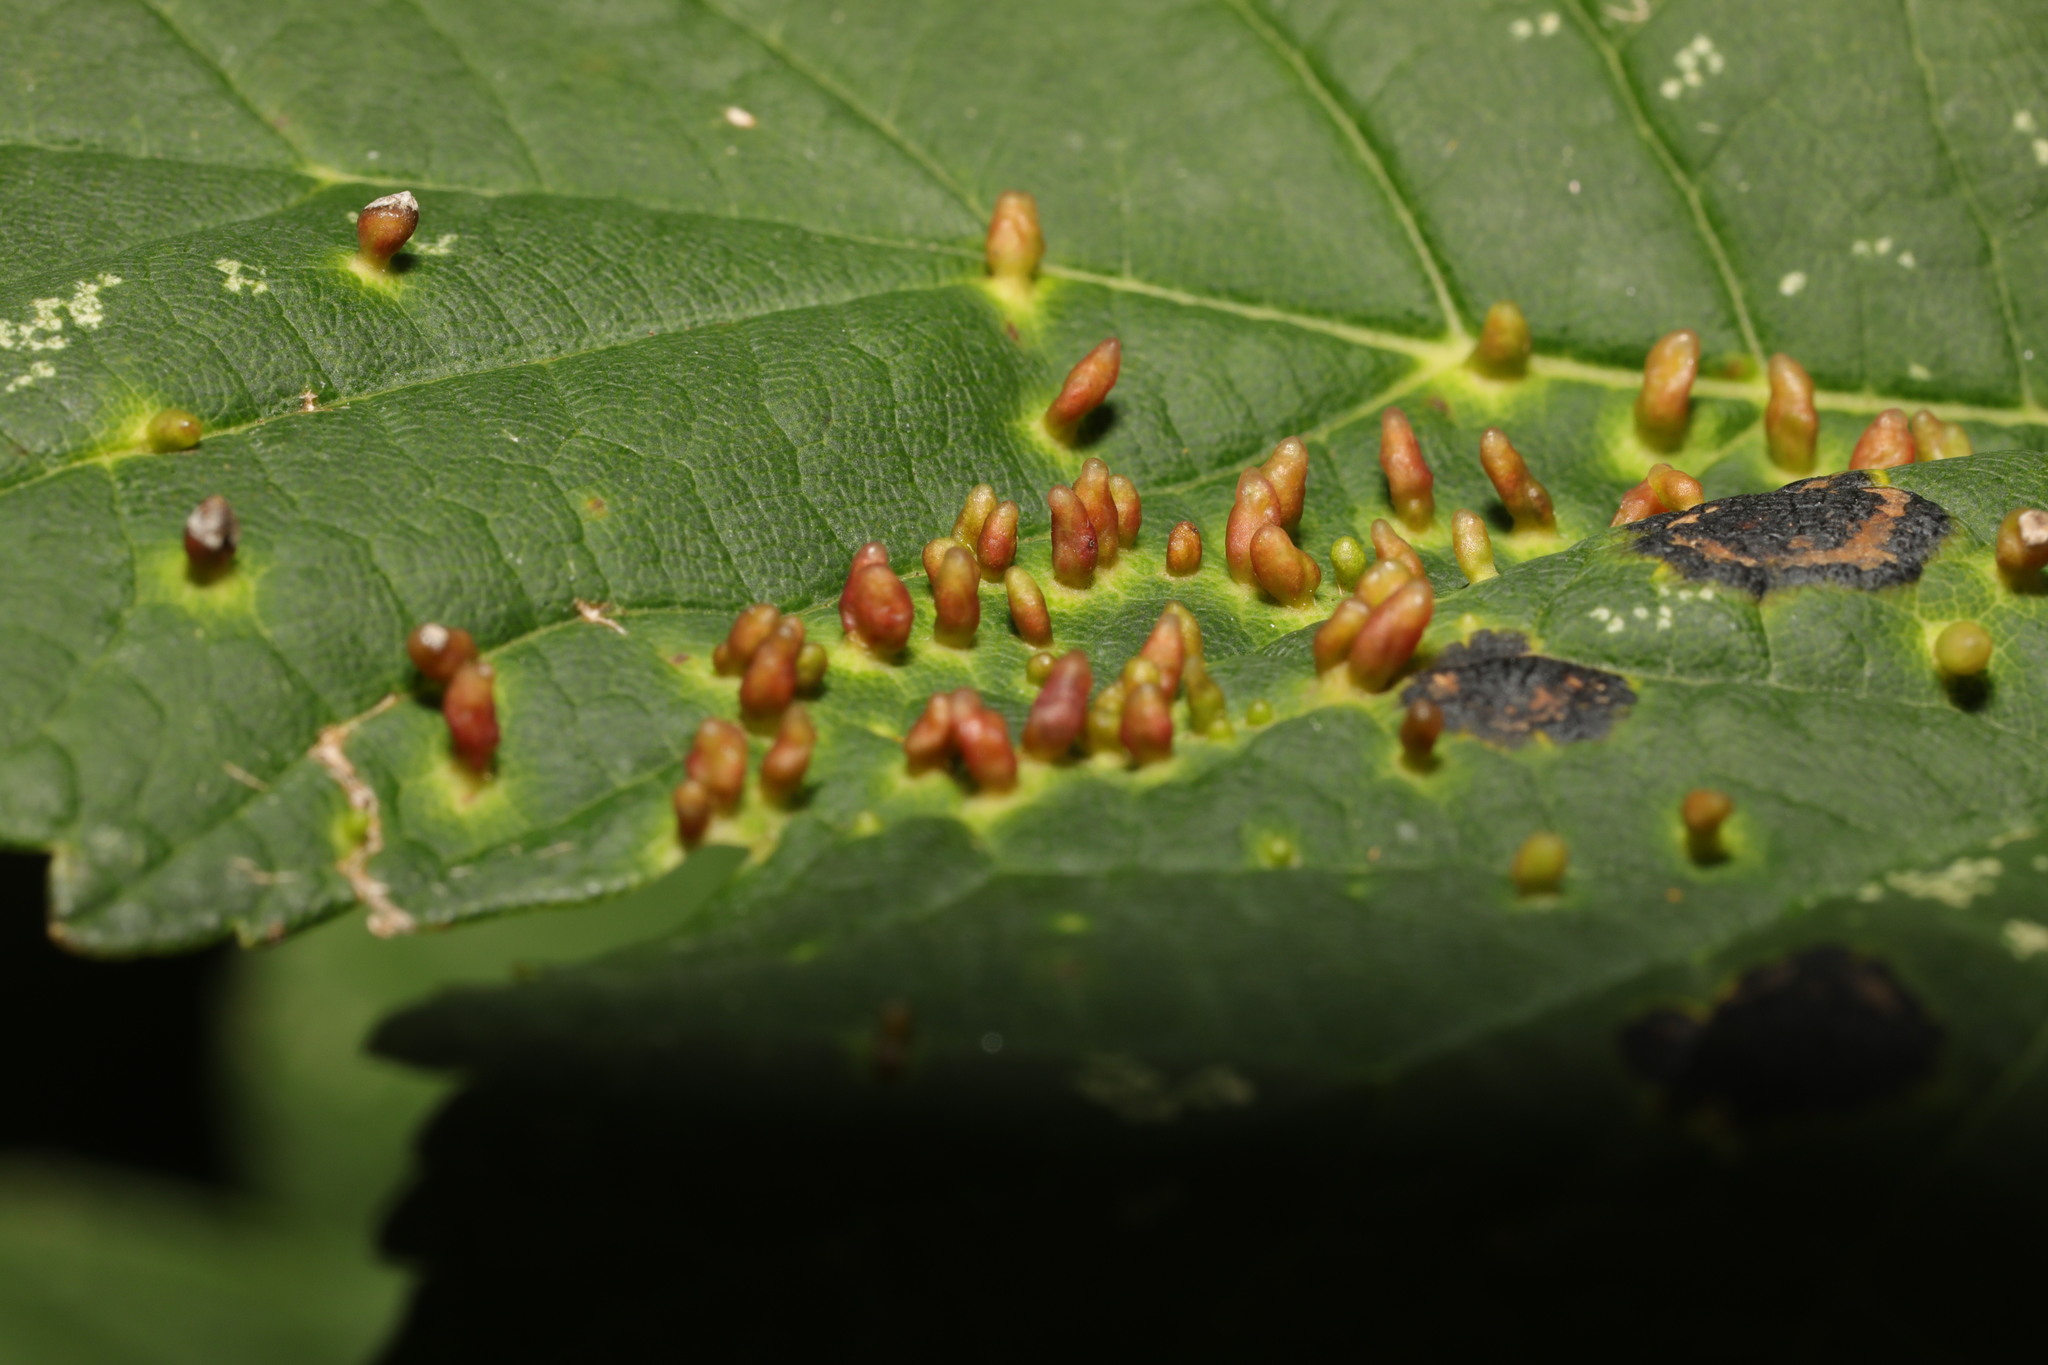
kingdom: Animalia
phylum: Arthropoda
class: Arachnida
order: Trombidiformes
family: Eriophyidae
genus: Aceria
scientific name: Aceria cephaloneus
